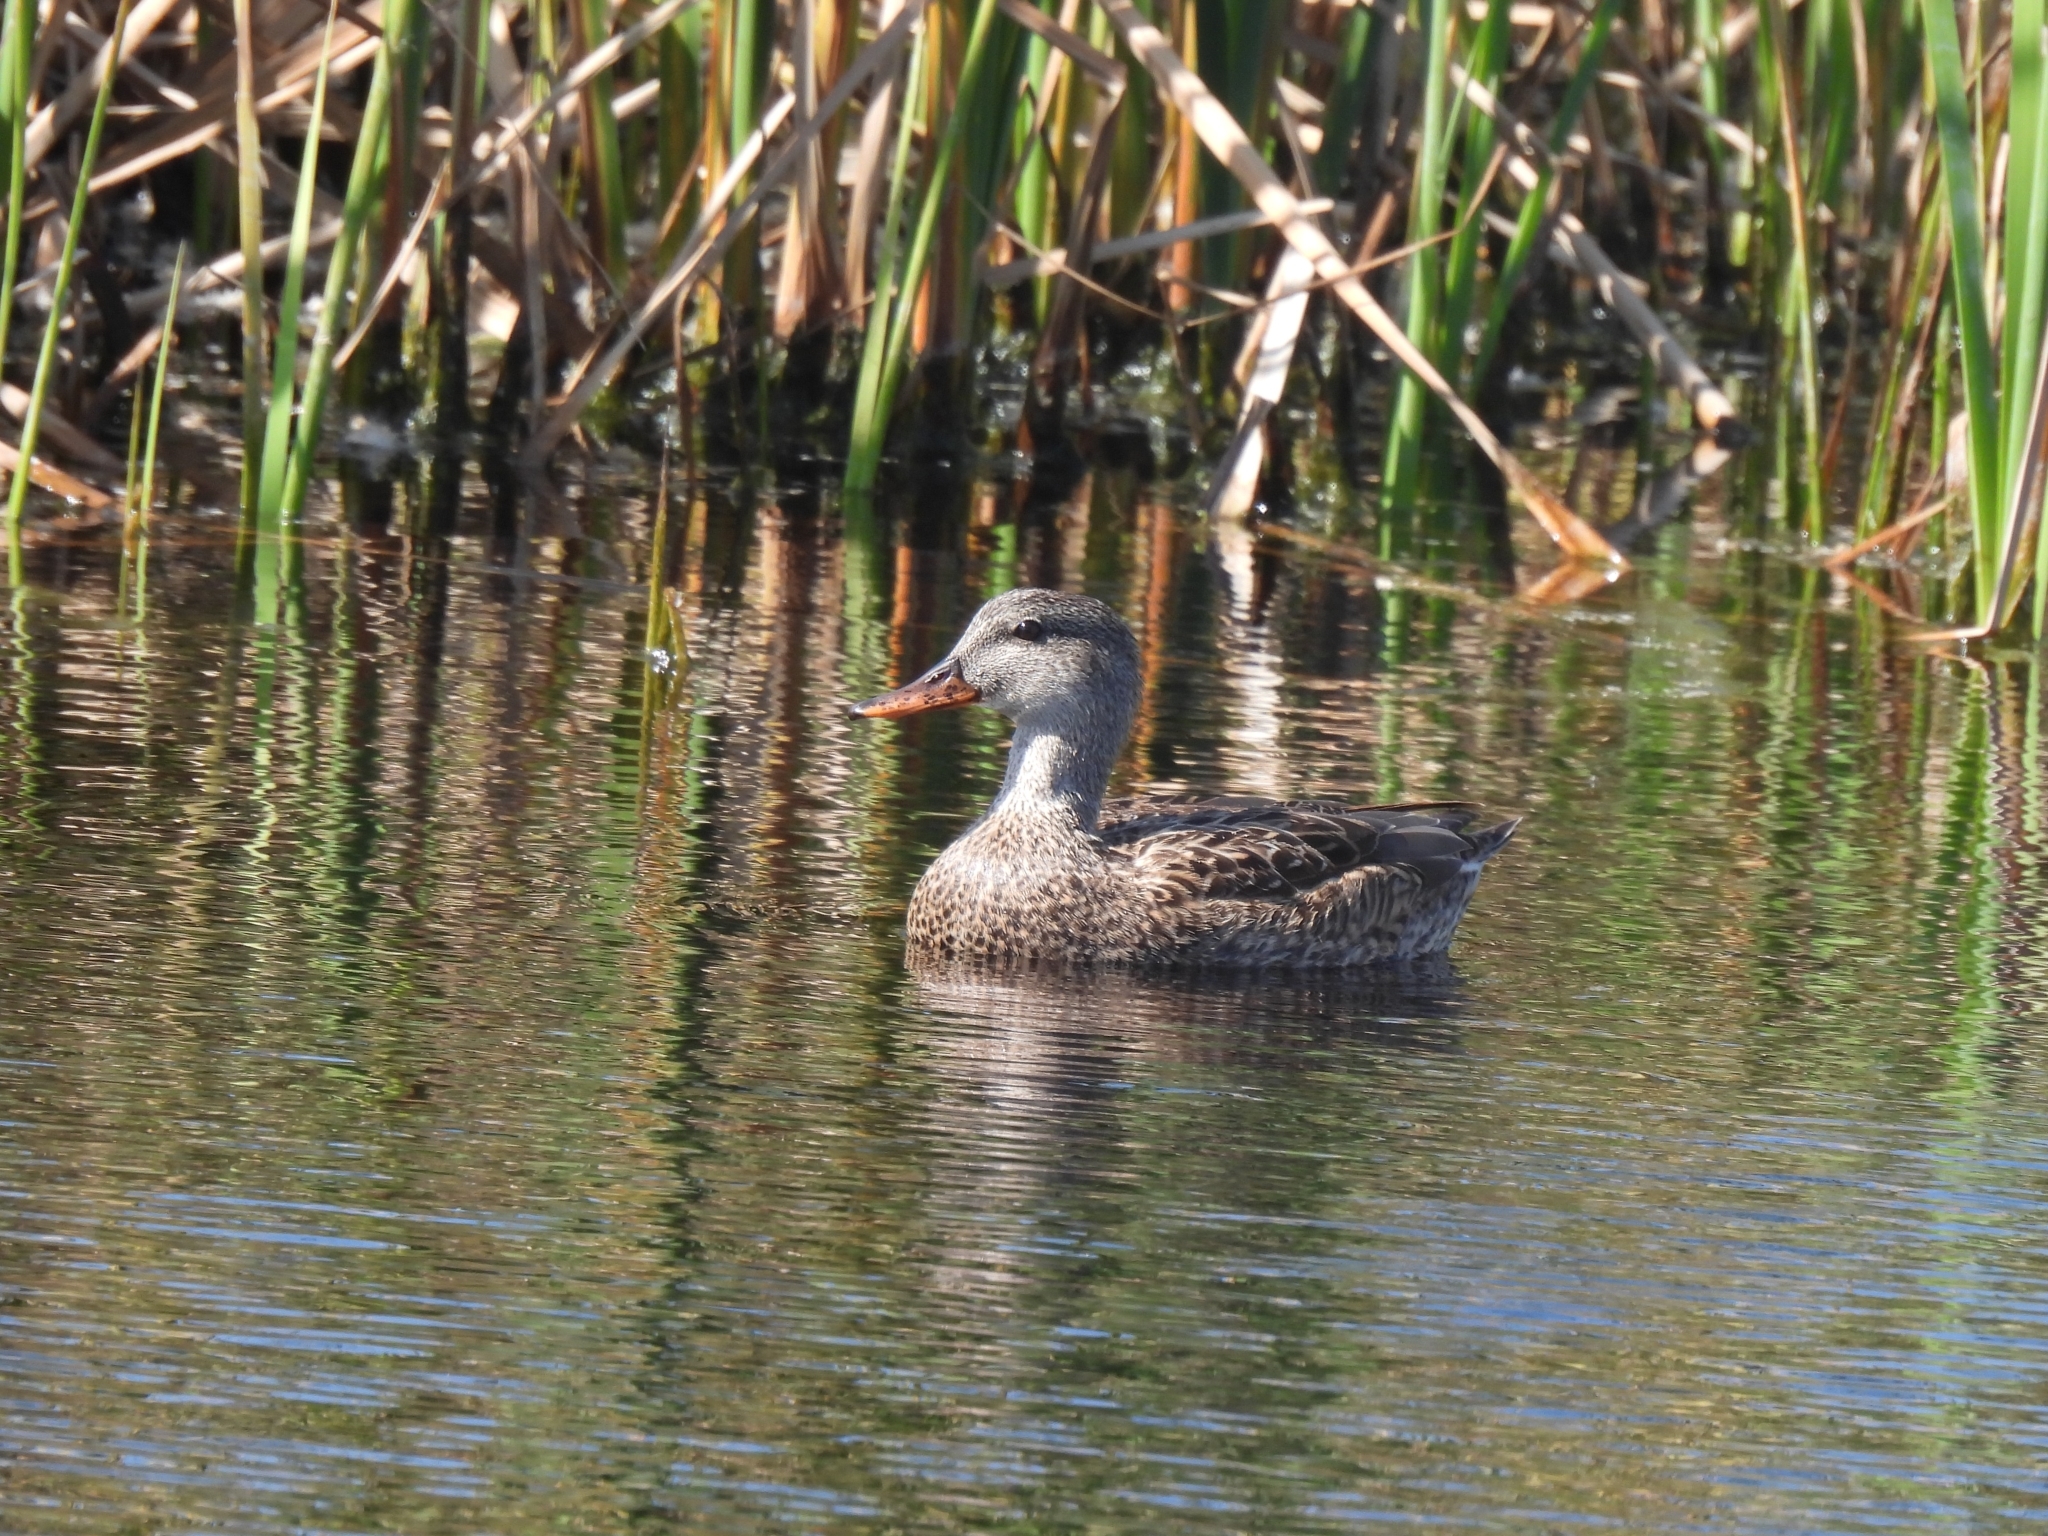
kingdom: Animalia
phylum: Chordata
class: Aves
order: Anseriformes
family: Anatidae
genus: Mareca
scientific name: Mareca strepera
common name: Gadwall
